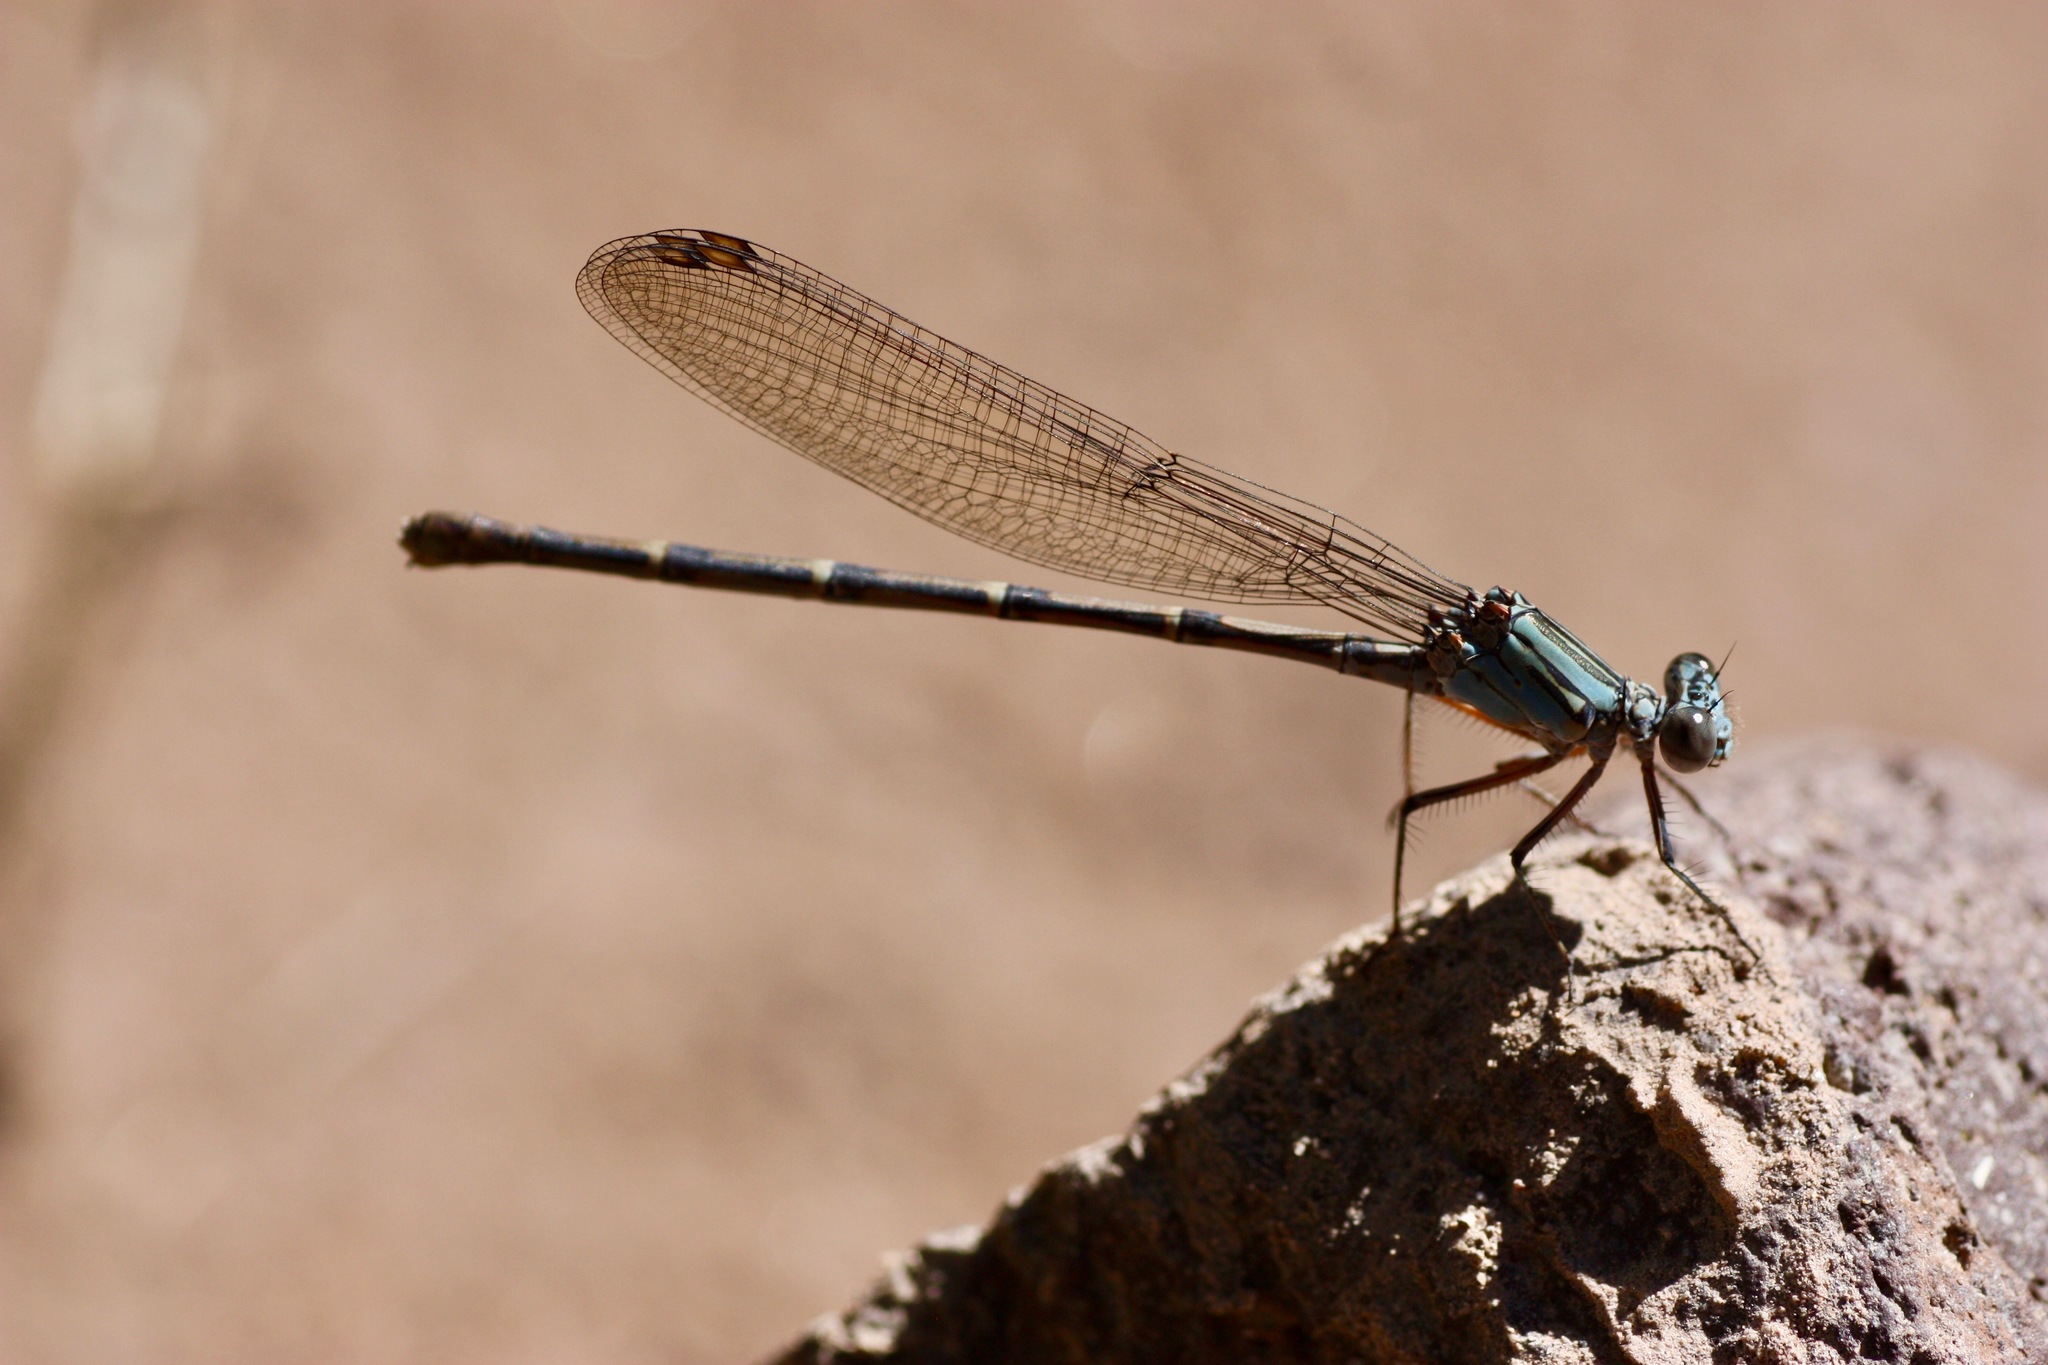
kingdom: Animalia
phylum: Arthropoda
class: Insecta
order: Odonata
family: Coenagrionidae
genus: Argia
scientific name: Argia lugens
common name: Sooty dancer
